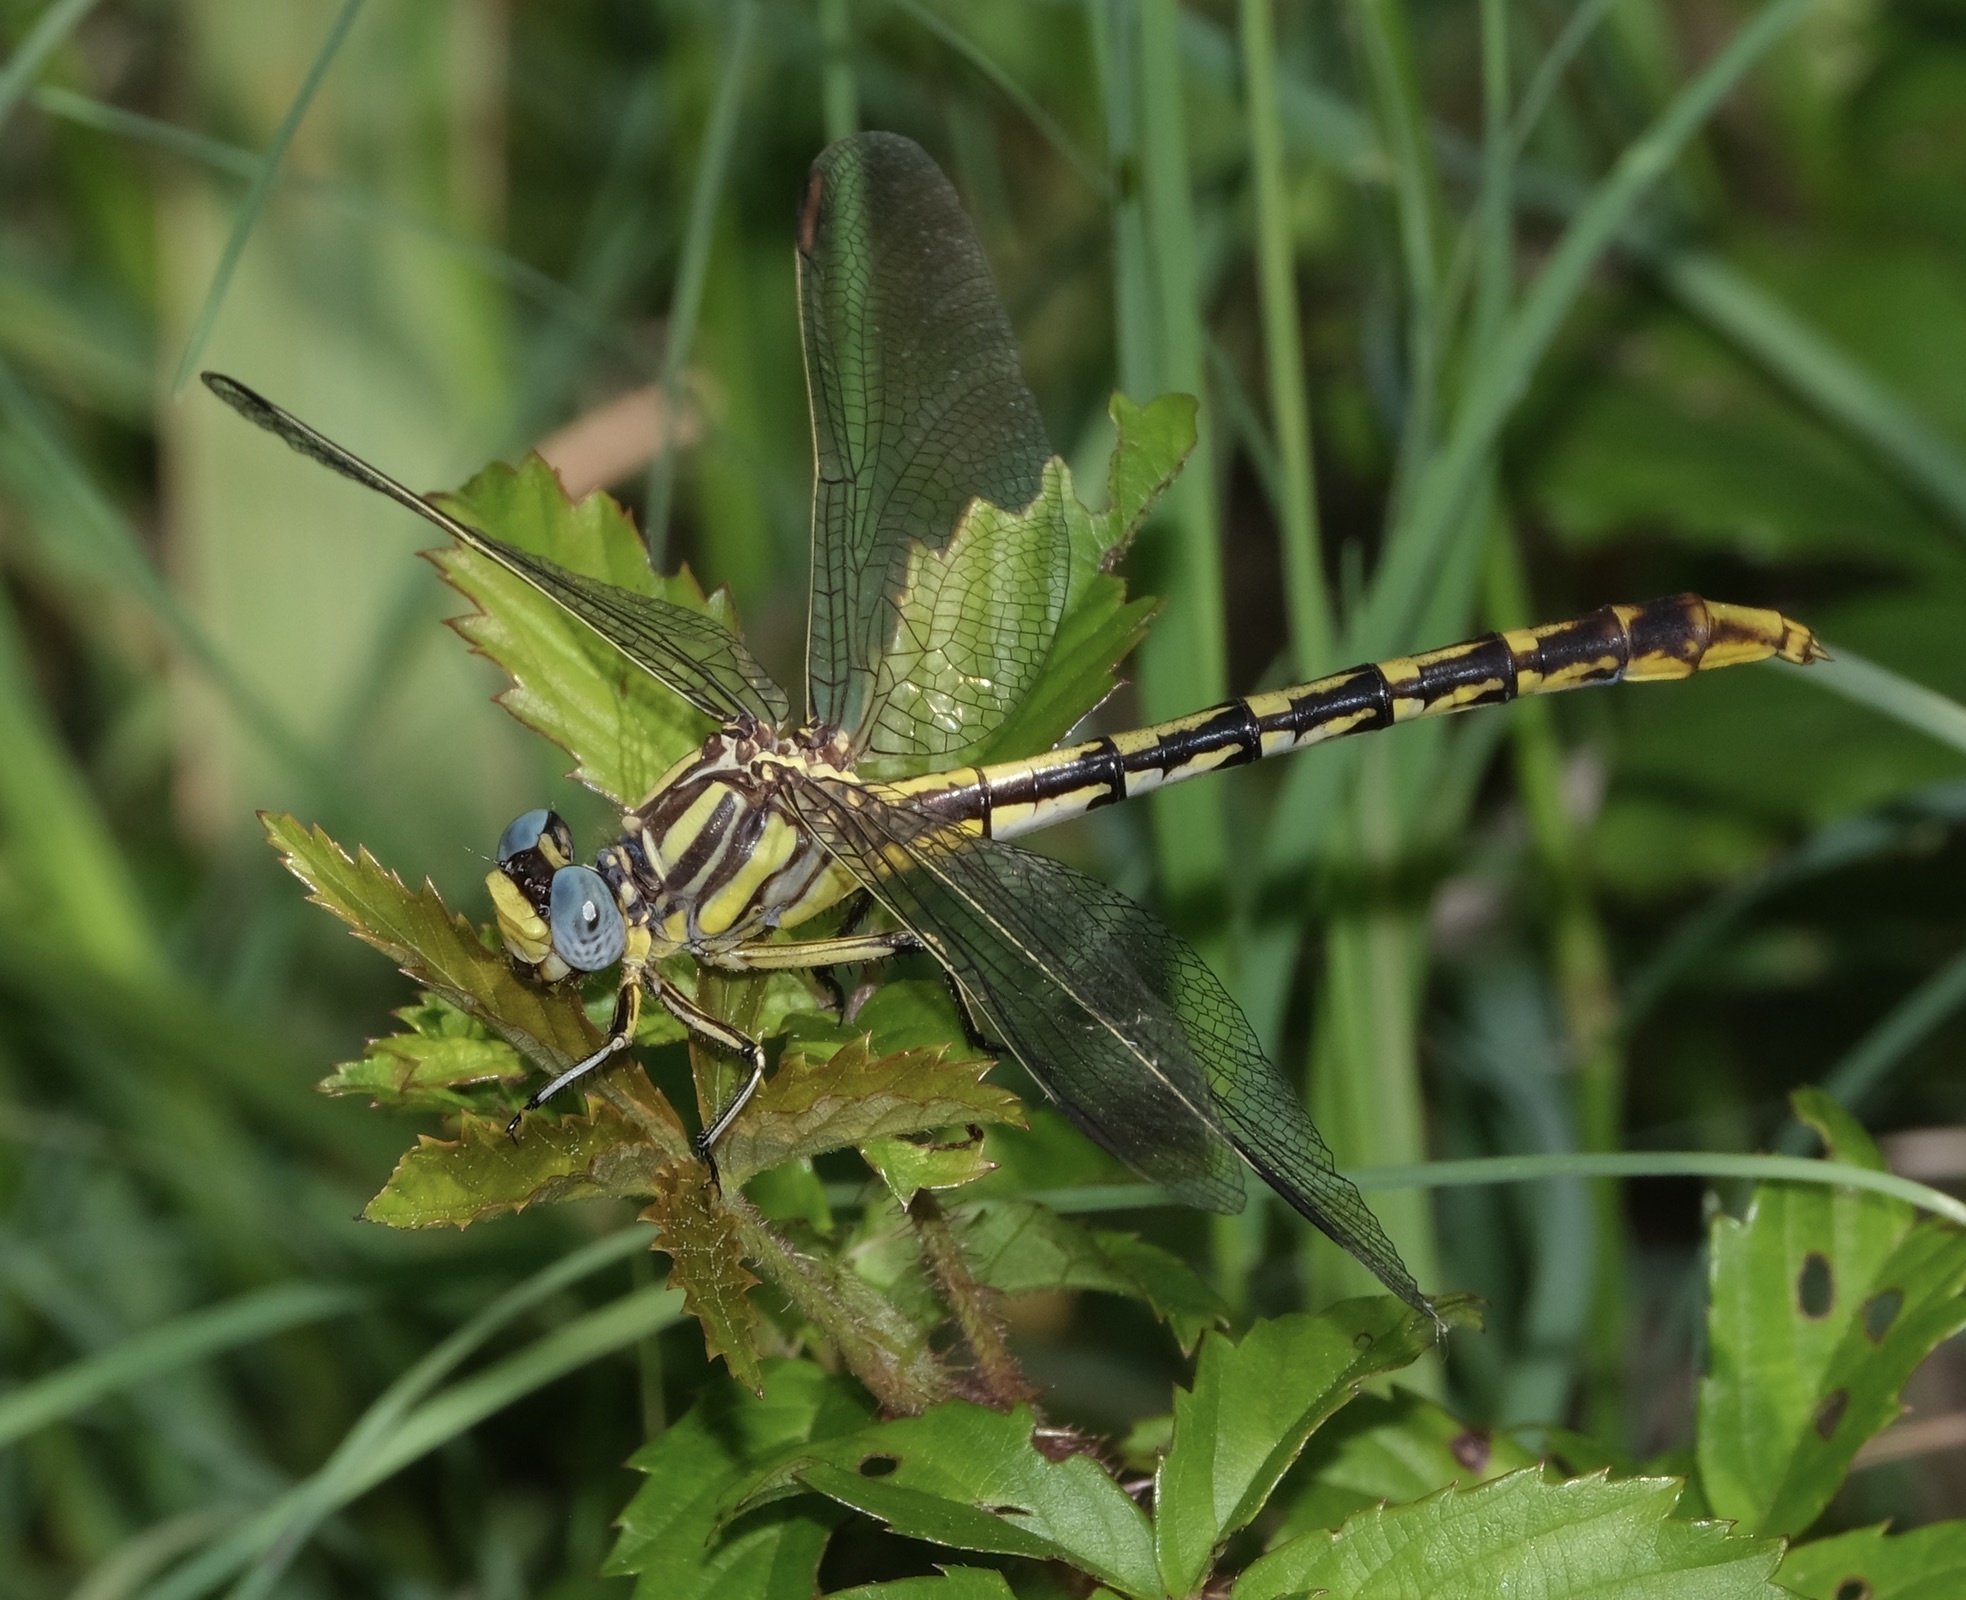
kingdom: Animalia
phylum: Arthropoda
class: Insecta
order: Odonata
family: Gomphidae
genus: Phanogomphus
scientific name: Phanogomphus militaris
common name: Sulphur-tipped clubtail
